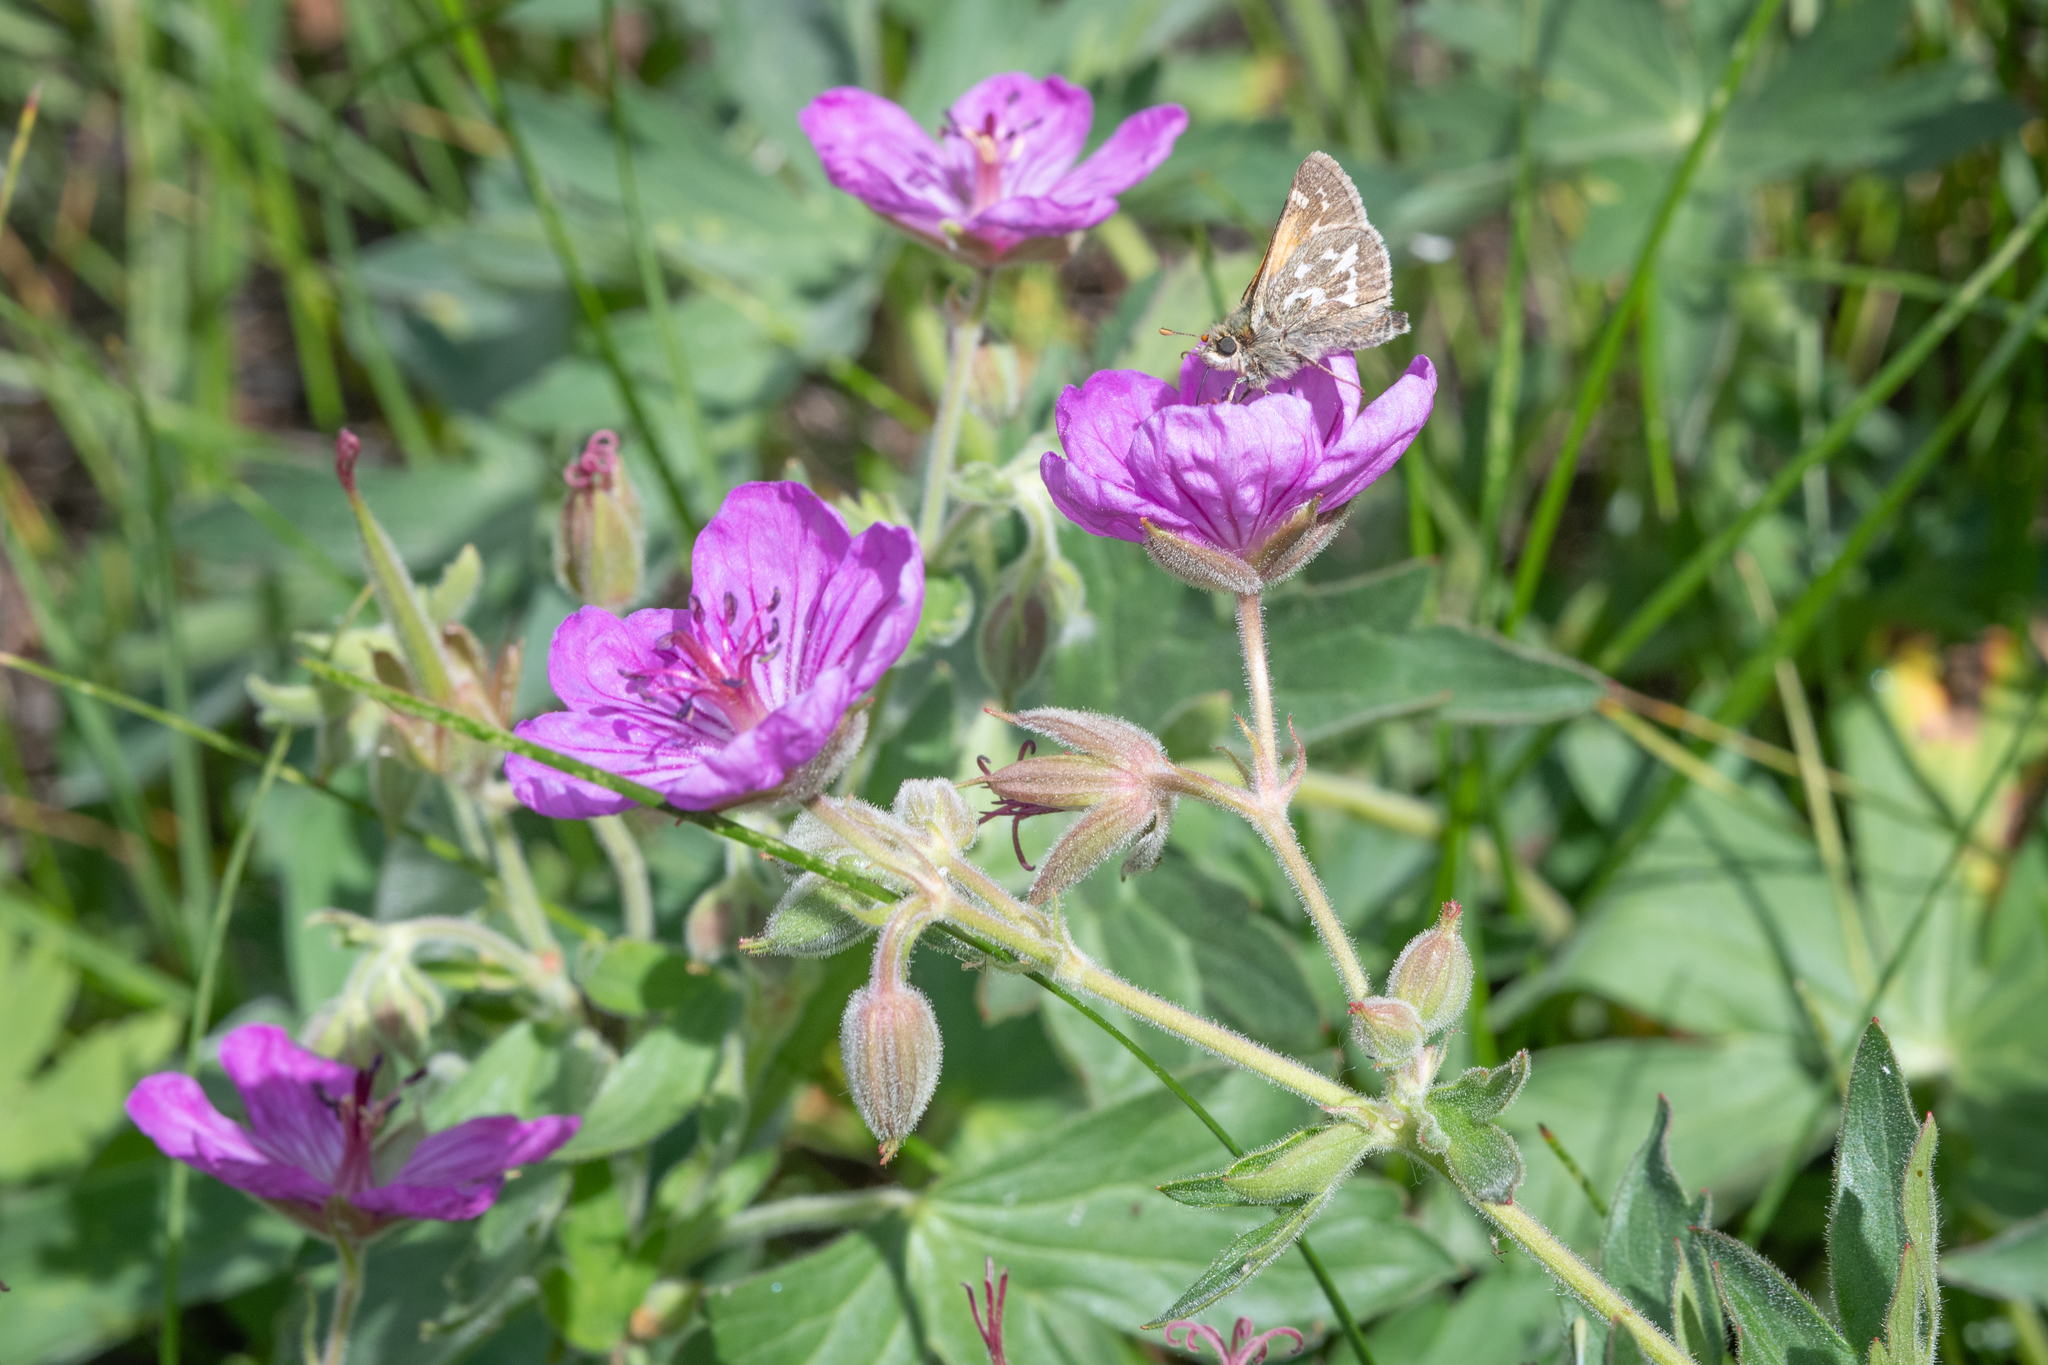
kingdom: Plantae
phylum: Tracheophyta
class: Magnoliopsida
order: Geraniales
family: Geraniaceae
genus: Geranium
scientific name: Geranium viscosissimum
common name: Purple geranium
